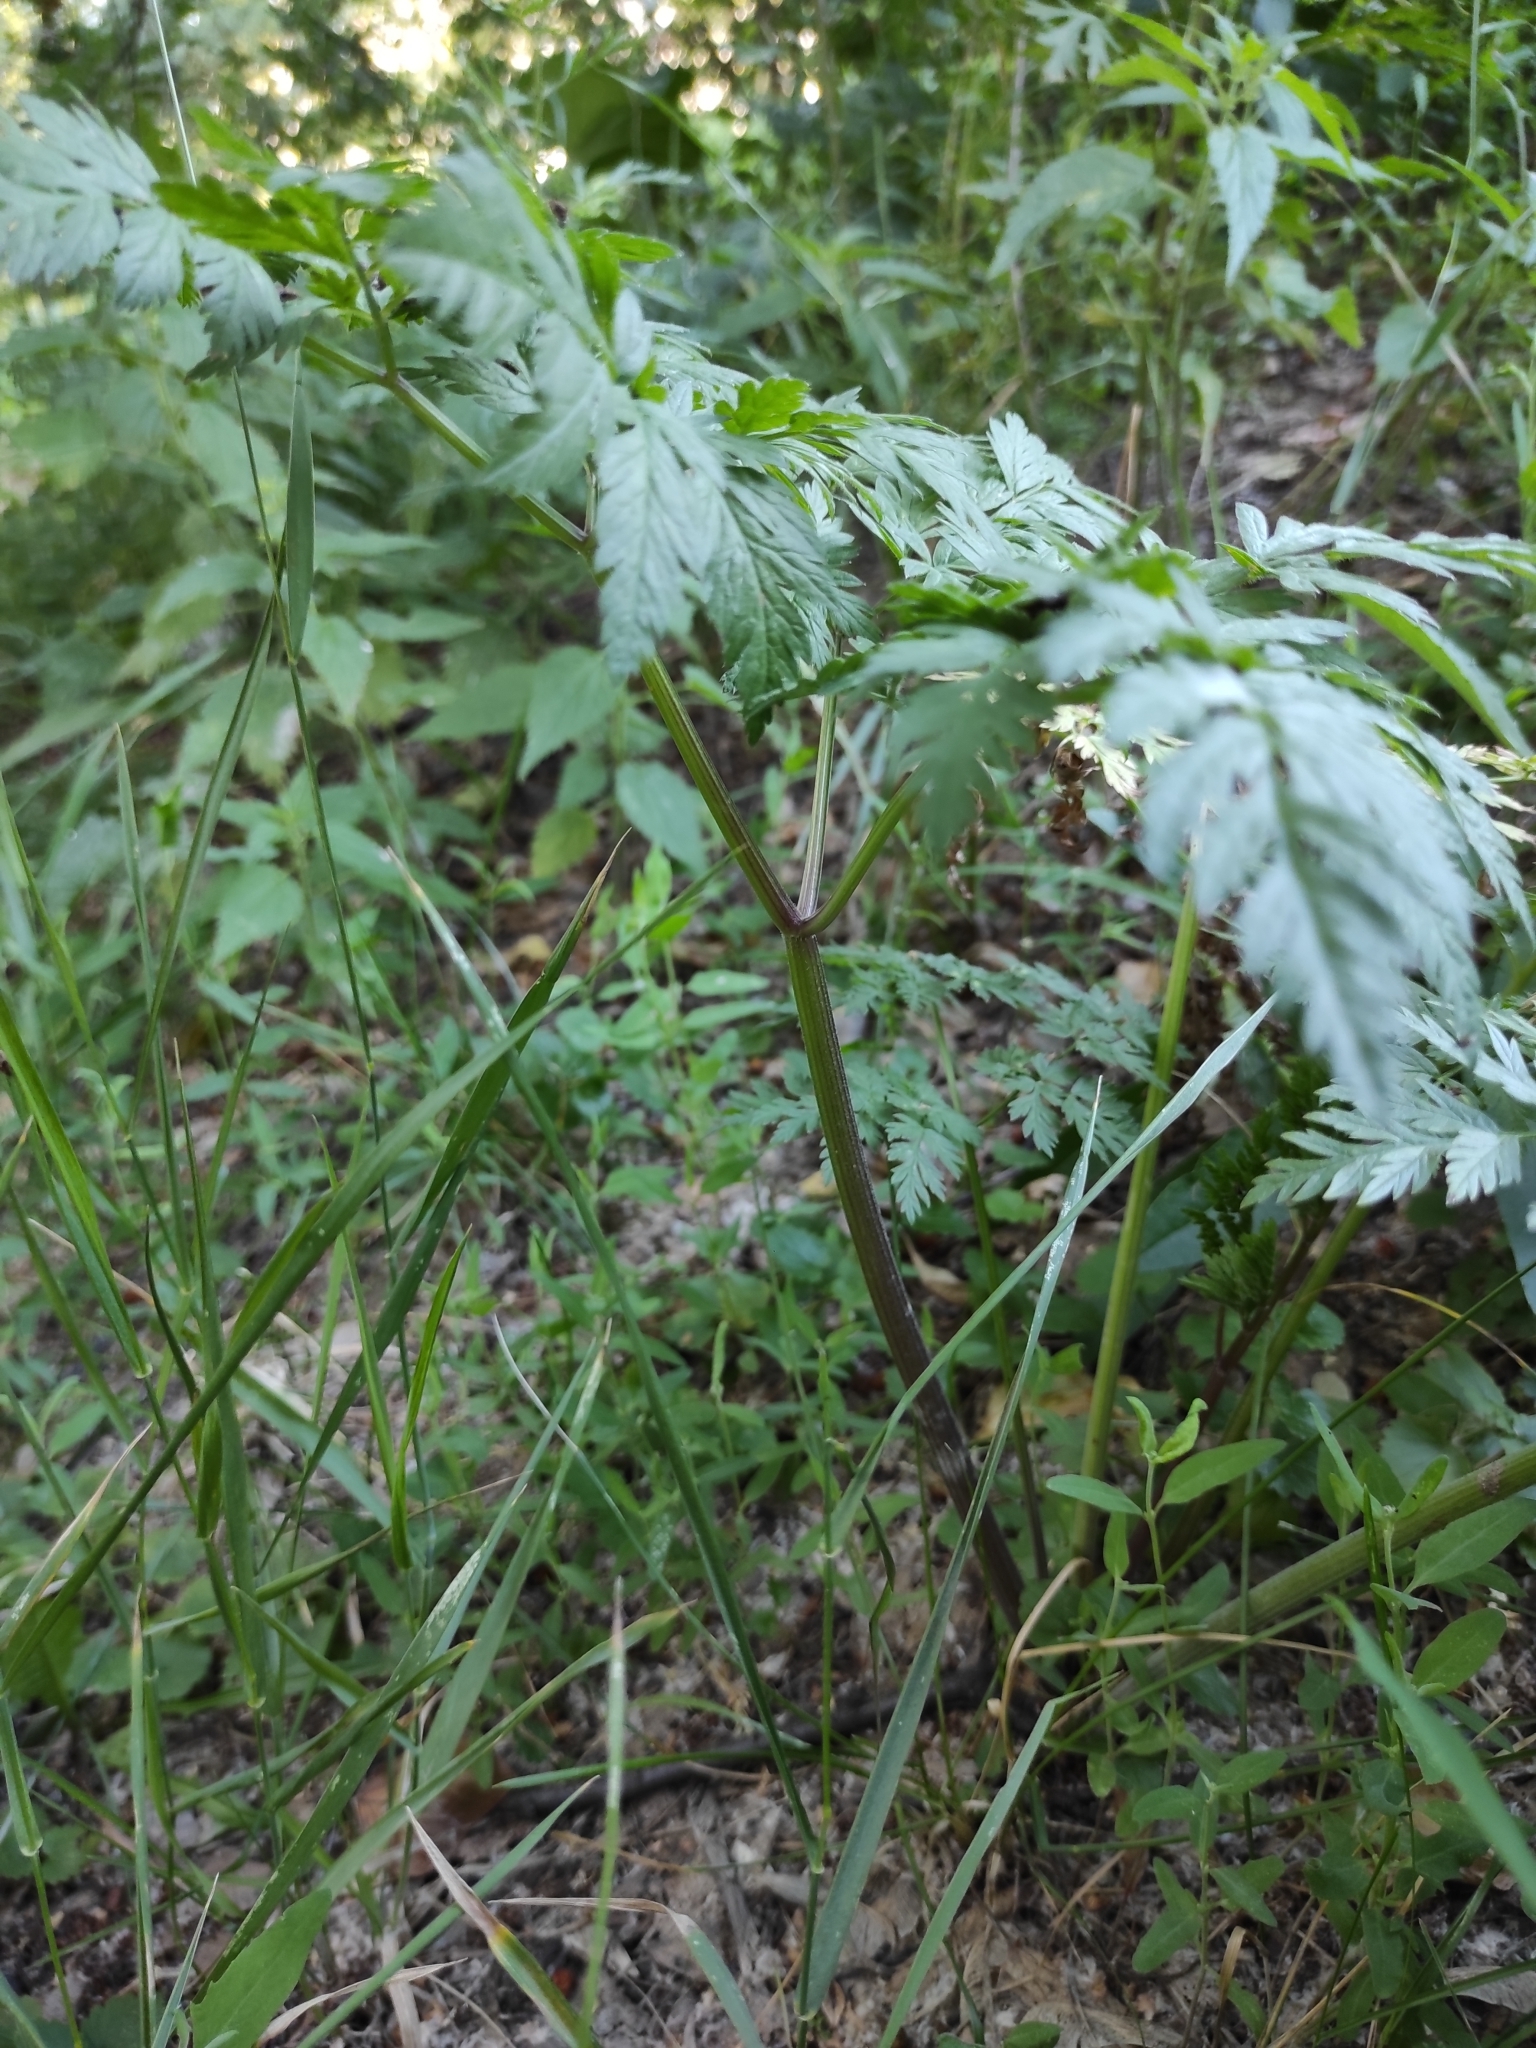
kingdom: Plantae
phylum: Tracheophyta
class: Magnoliopsida
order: Apiales
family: Apiaceae
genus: Anthriscus
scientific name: Anthriscus sylvestris
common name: Cow parsley
